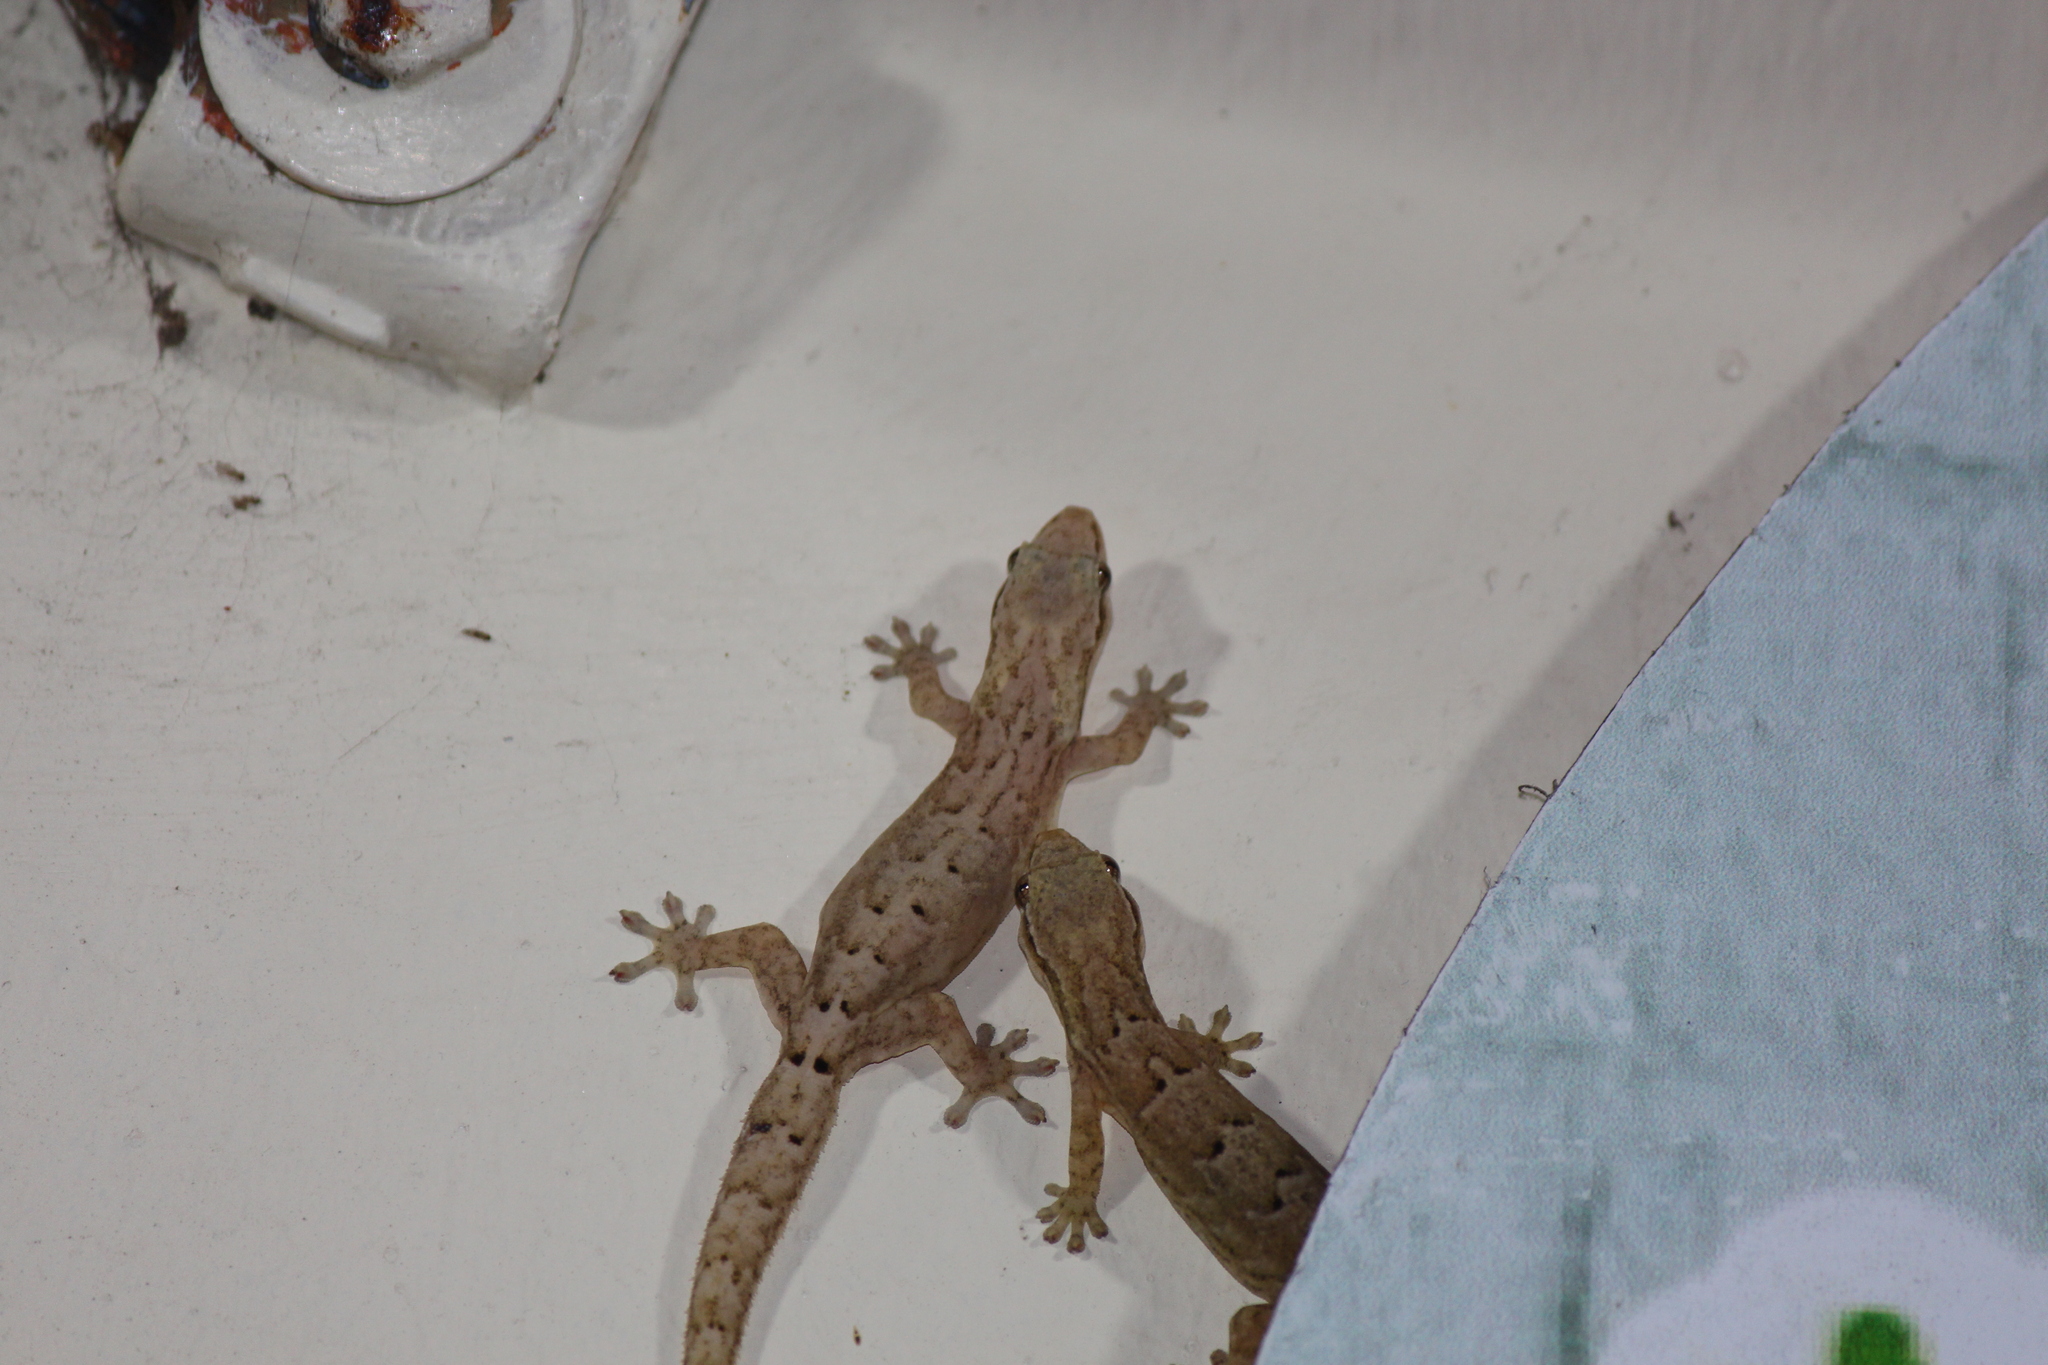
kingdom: Animalia
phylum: Chordata
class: Squamata
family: Gekkonidae
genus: Lepidodactylus
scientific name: Lepidodactylus lugubris
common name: Mourning gecko
